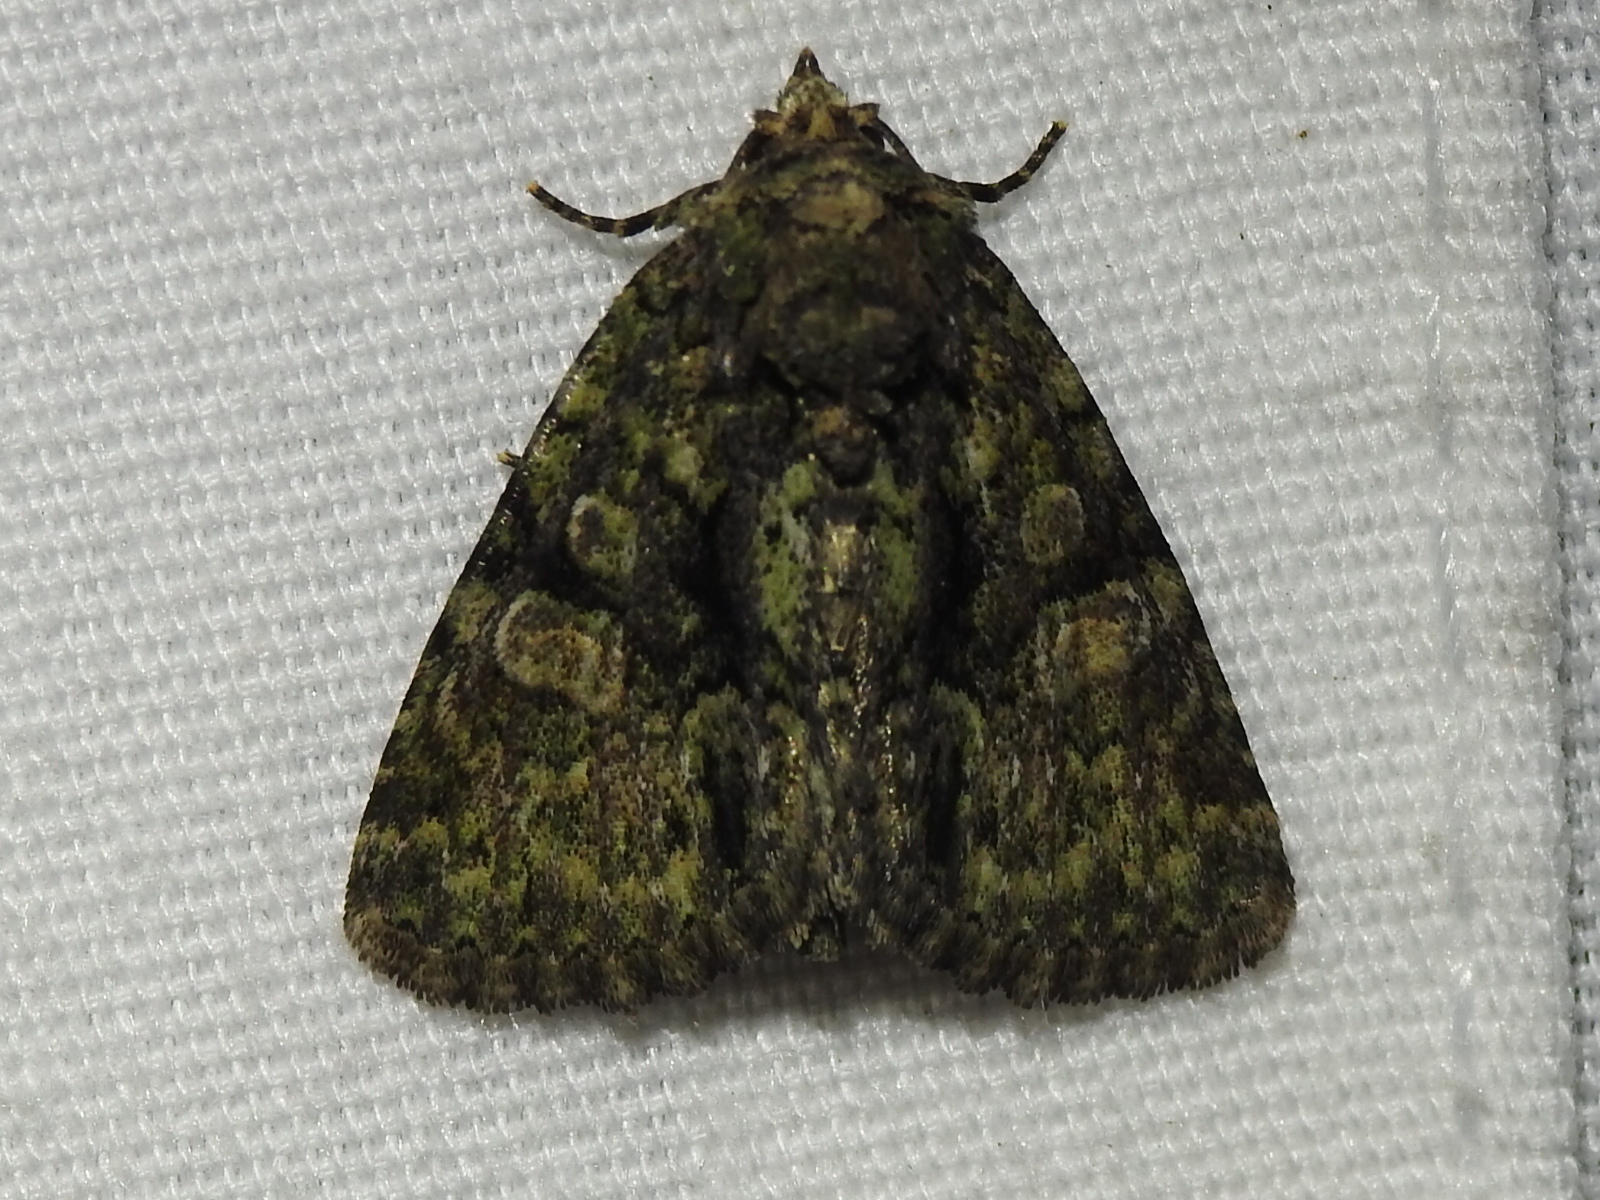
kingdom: Animalia
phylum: Arthropoda
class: Insecta
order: Lepidoptera
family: Noctuidae
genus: Phosphila
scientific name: Phosphila miselioides
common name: Spotted phosphila moth
